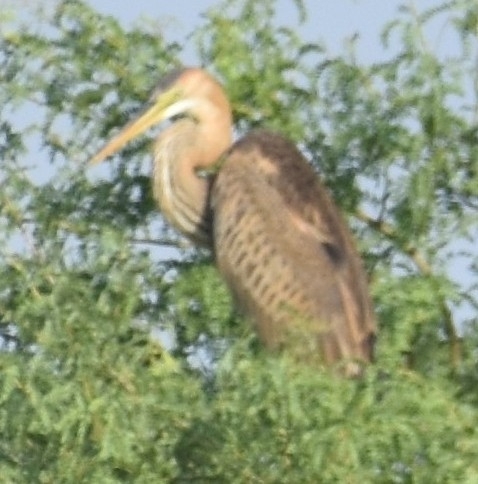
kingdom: Animalia
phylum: Chordata
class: Aves
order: Pelecaniformes
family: Ardeidae
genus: Ardea
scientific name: Ardea purpurea
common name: Purple heron
